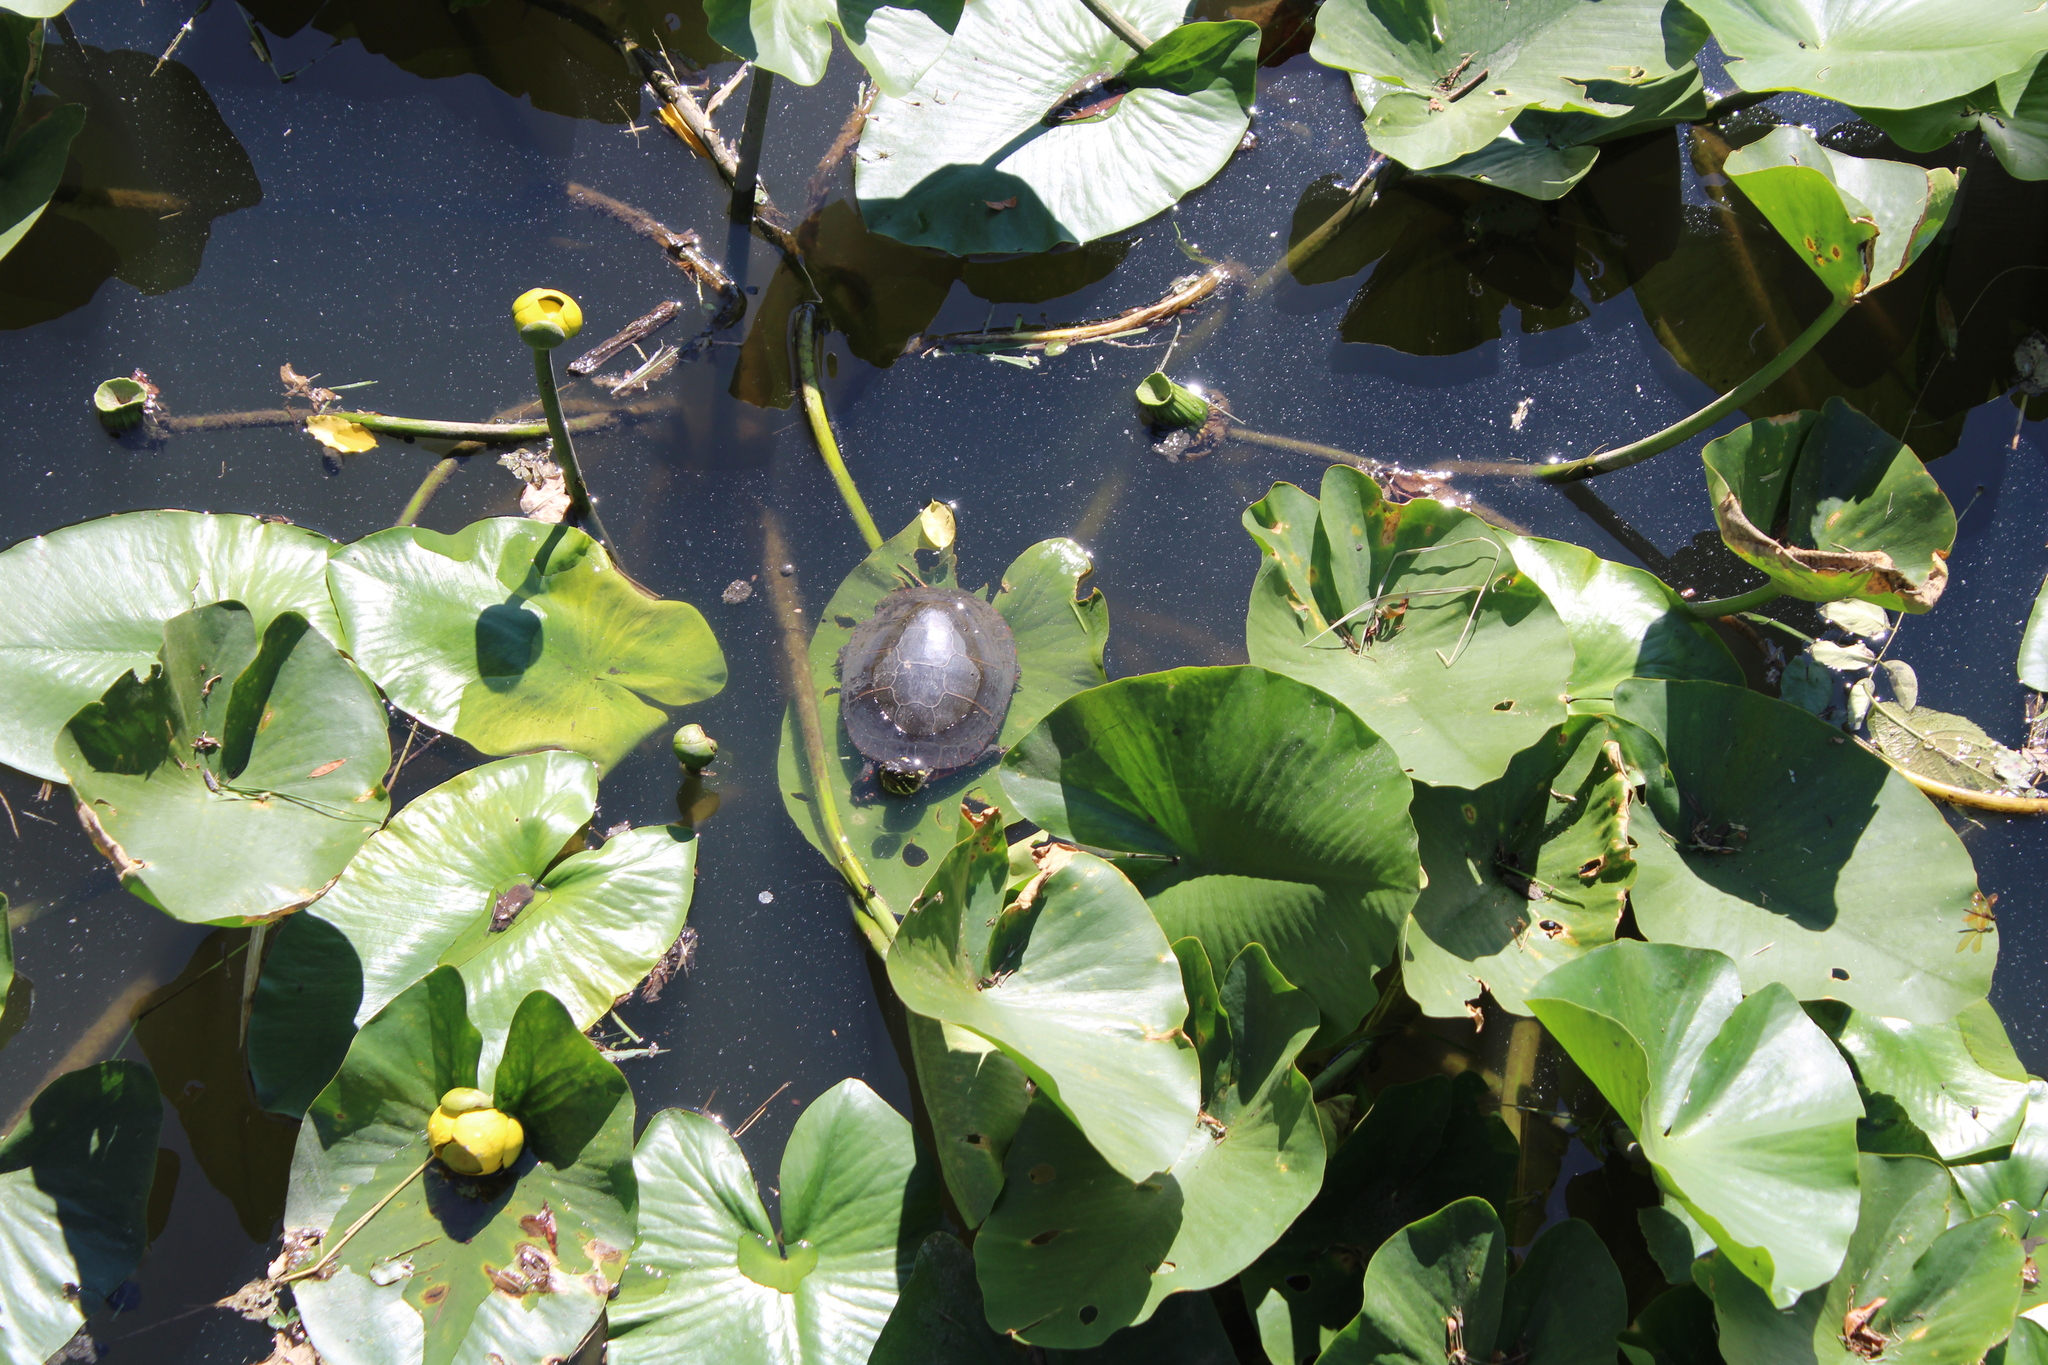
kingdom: Animalia
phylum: Chordata
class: Testudines
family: Emydidae
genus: Chrysemys
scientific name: Chrysemys picta
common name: Painted turtle
